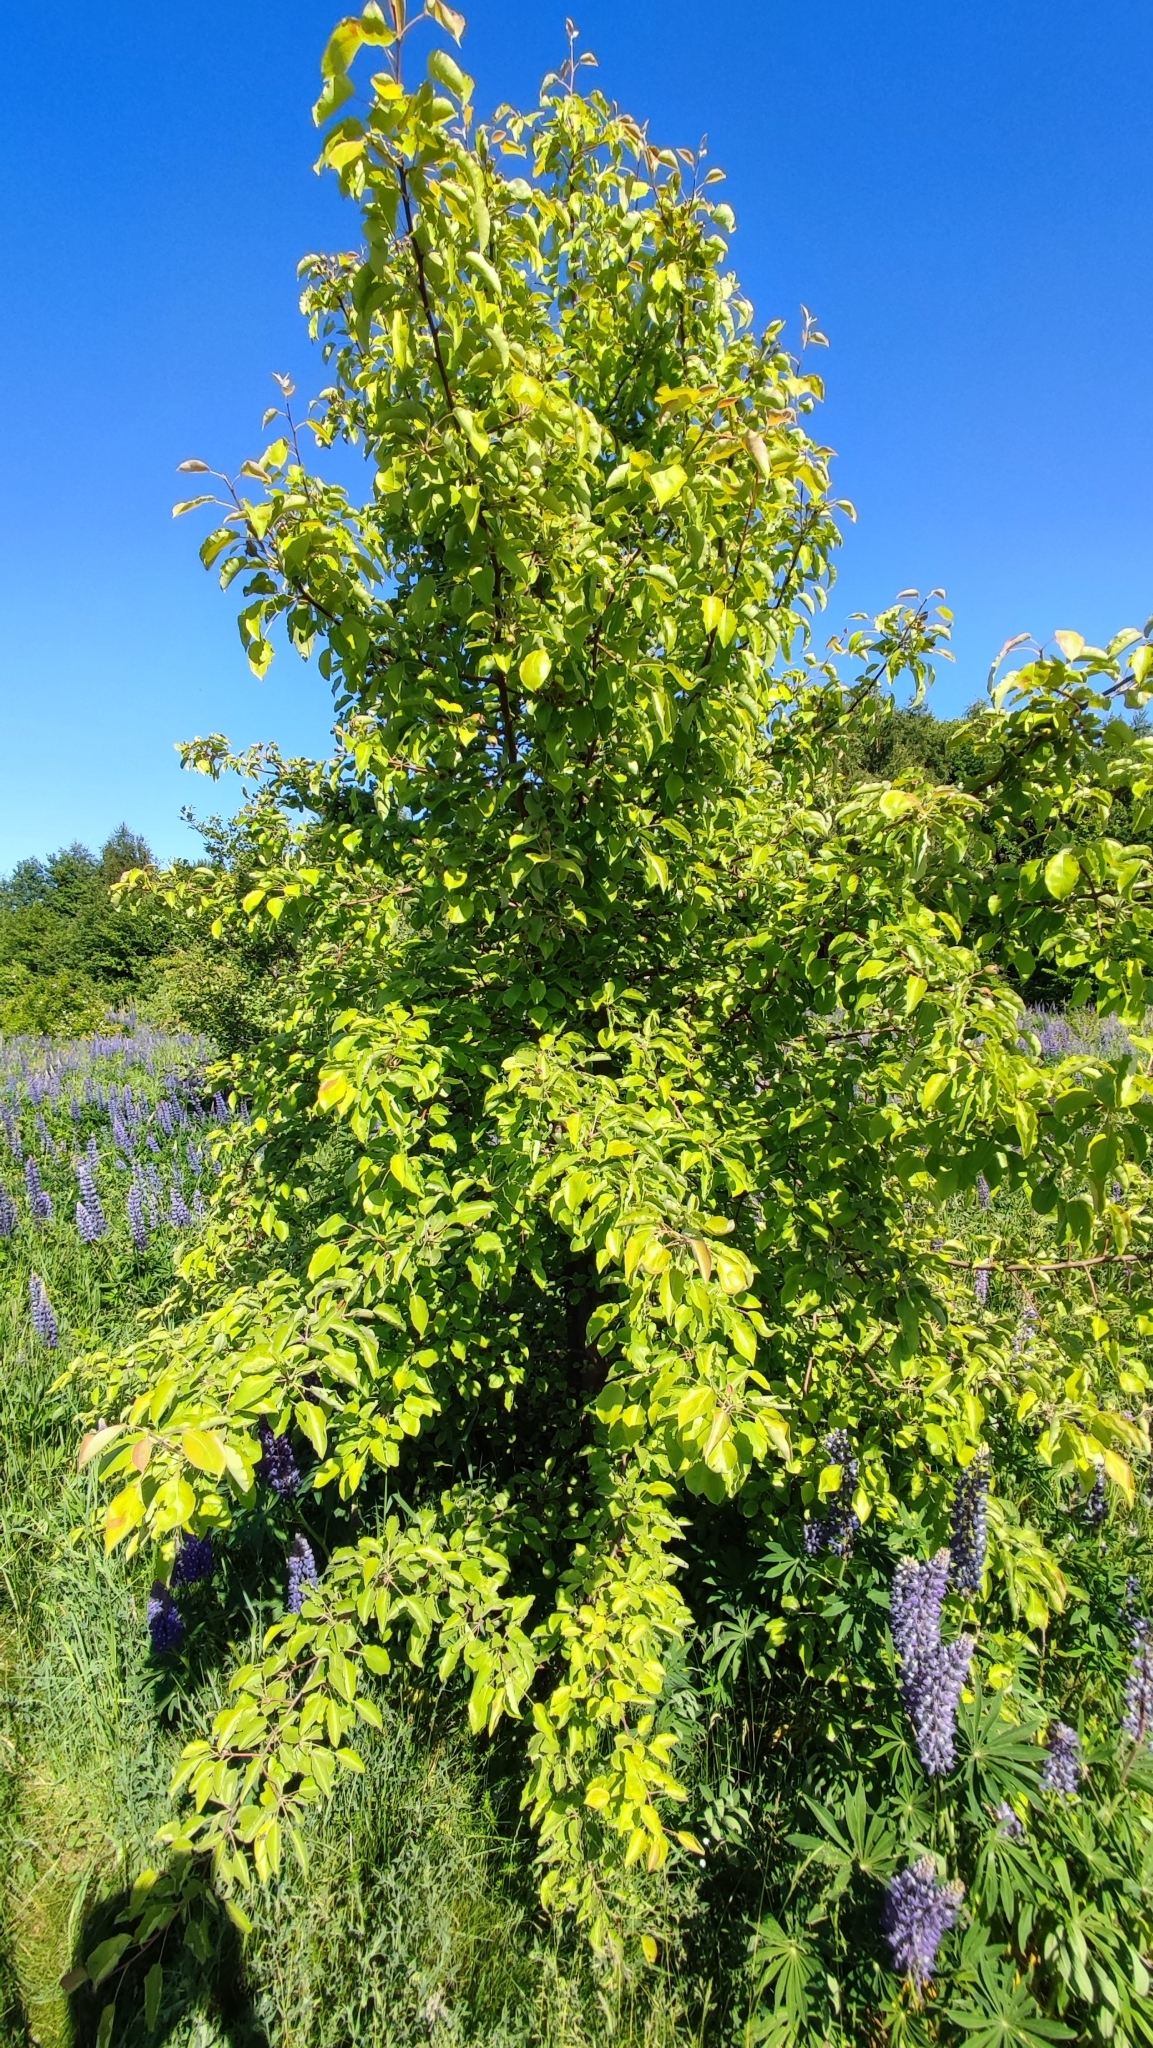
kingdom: Plantae
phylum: Tracheophyta
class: Magnoliopsida
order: Rosales
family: Rosaceae
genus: Pyrus
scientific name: Pyrus communis
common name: Pear
